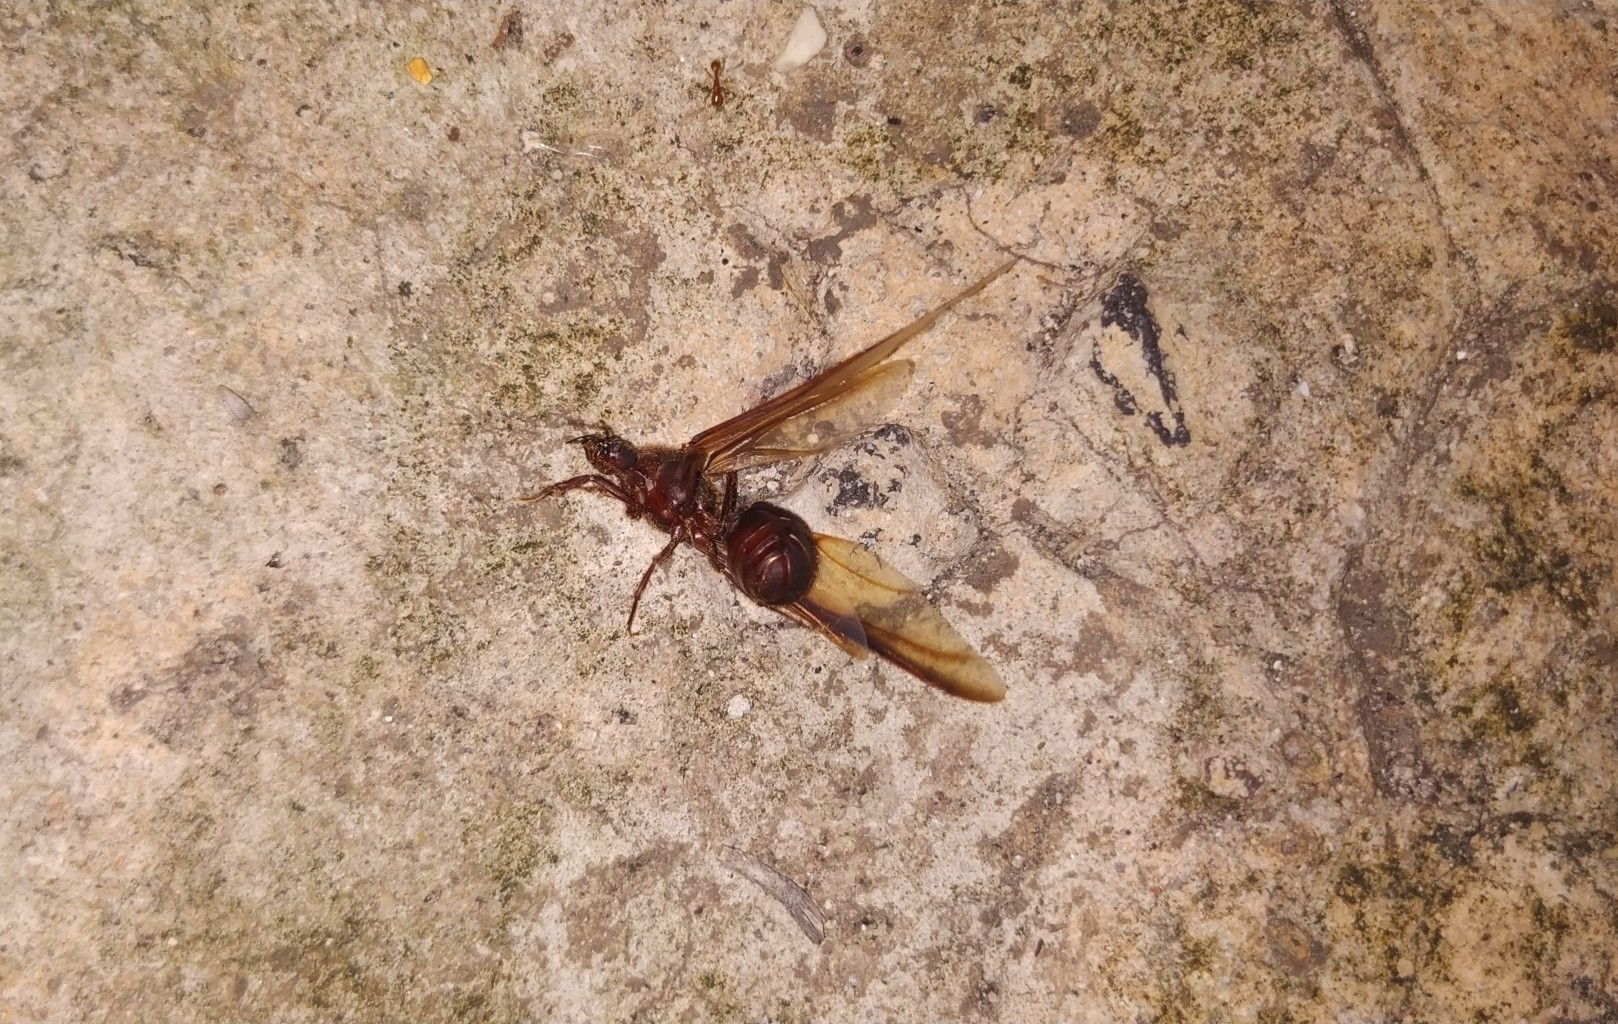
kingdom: Animalia
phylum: Arthropoda
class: Insecta
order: Hymenoptera
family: Formicidae
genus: Atta
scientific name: Atta mexicana
